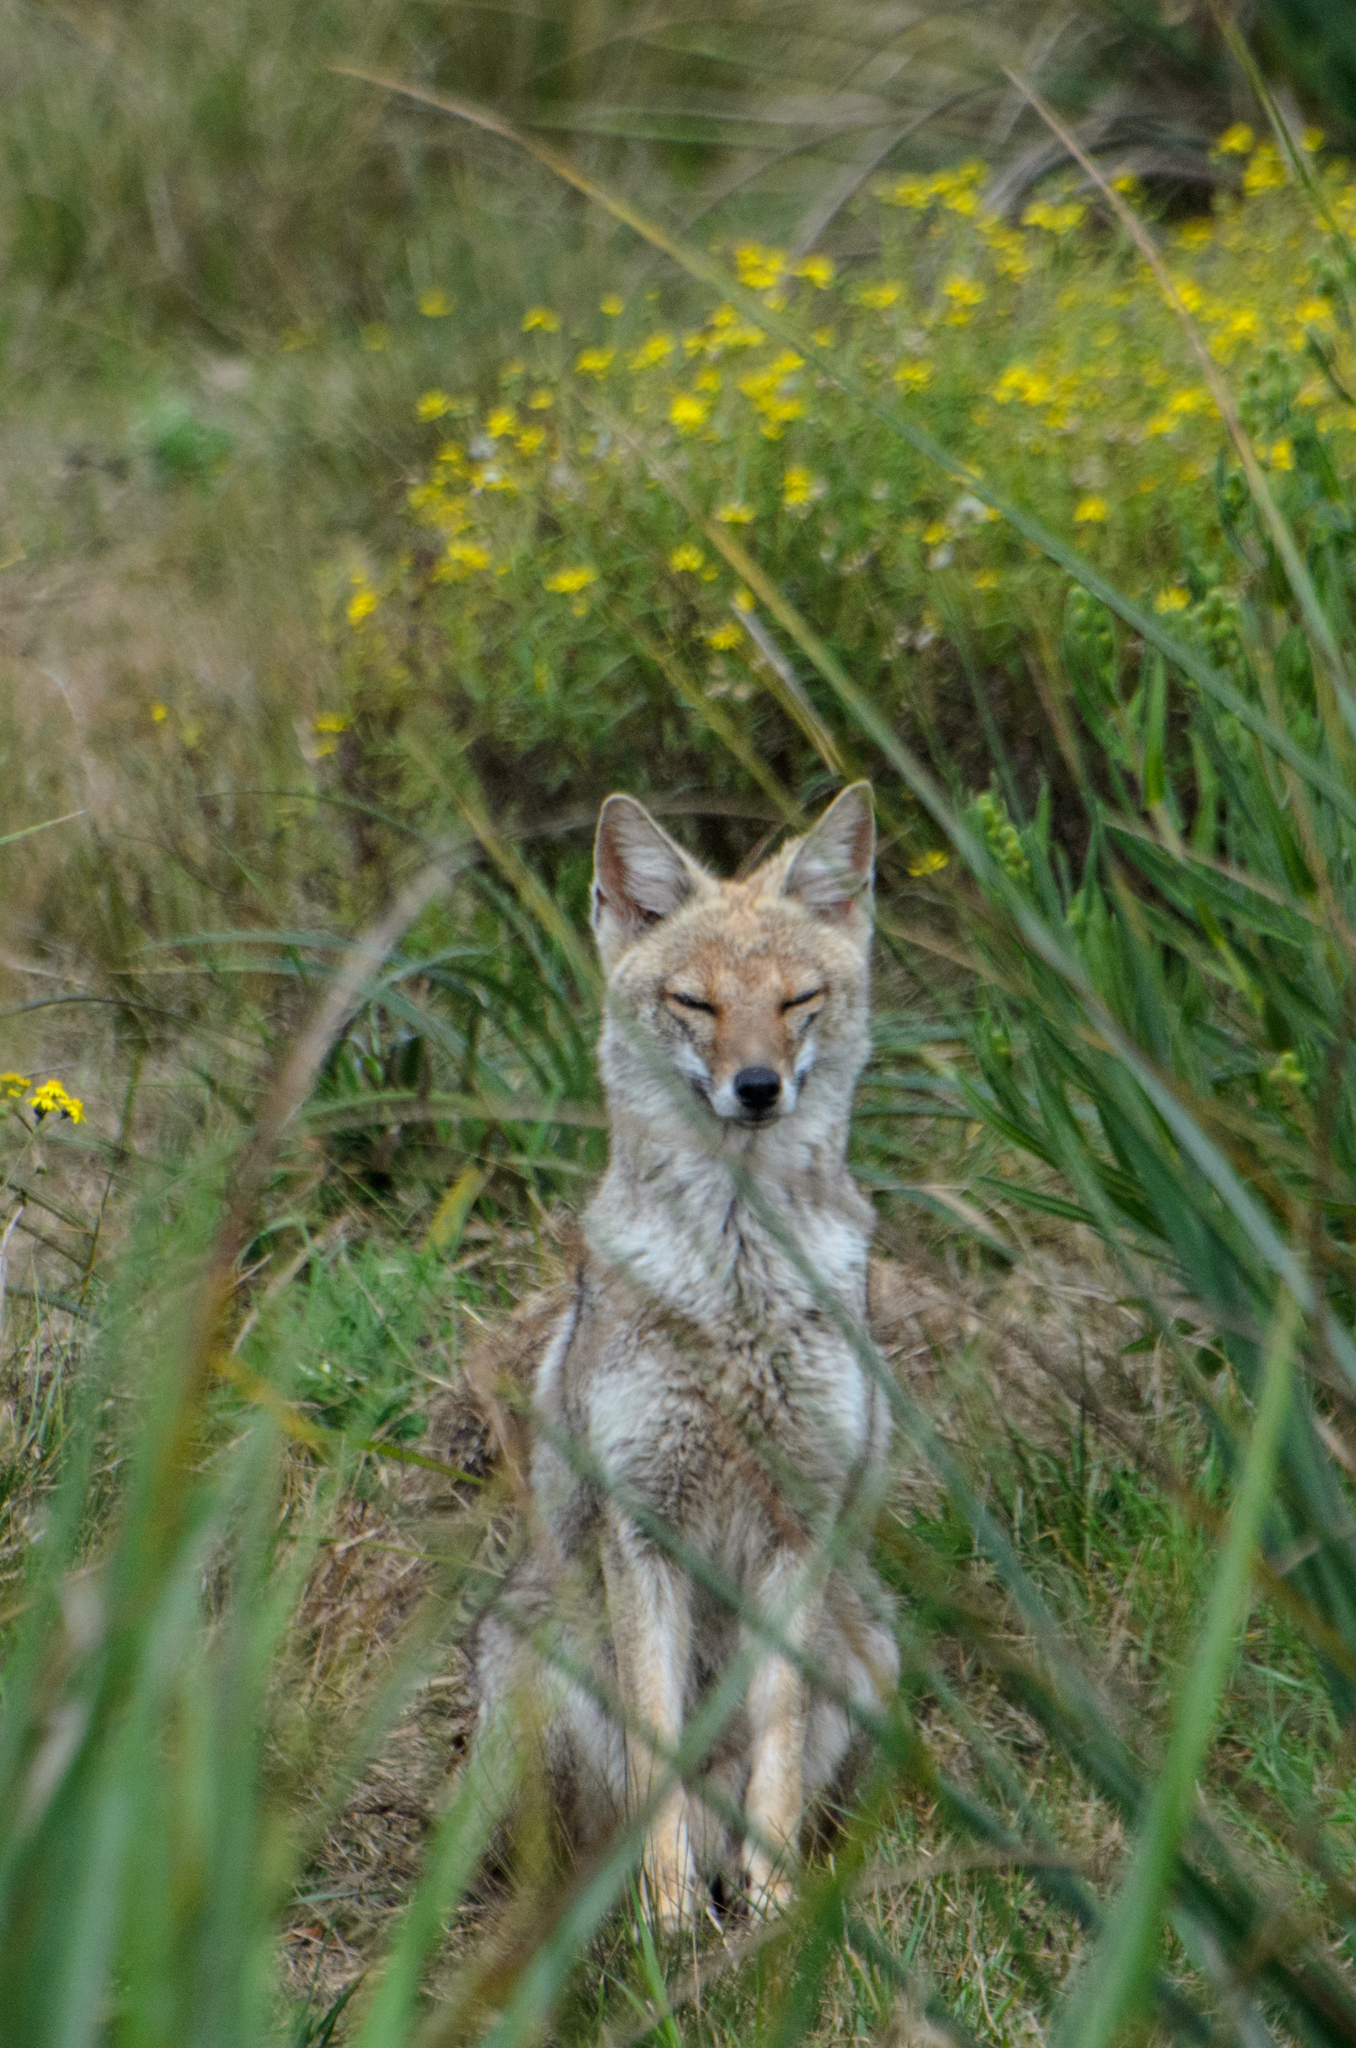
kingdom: Animalia
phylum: Chordata
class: Mammalia
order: Carnivora
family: Canidae
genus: Lycalopex
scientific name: Lycalopex gymnocercus
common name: Pampas fox
